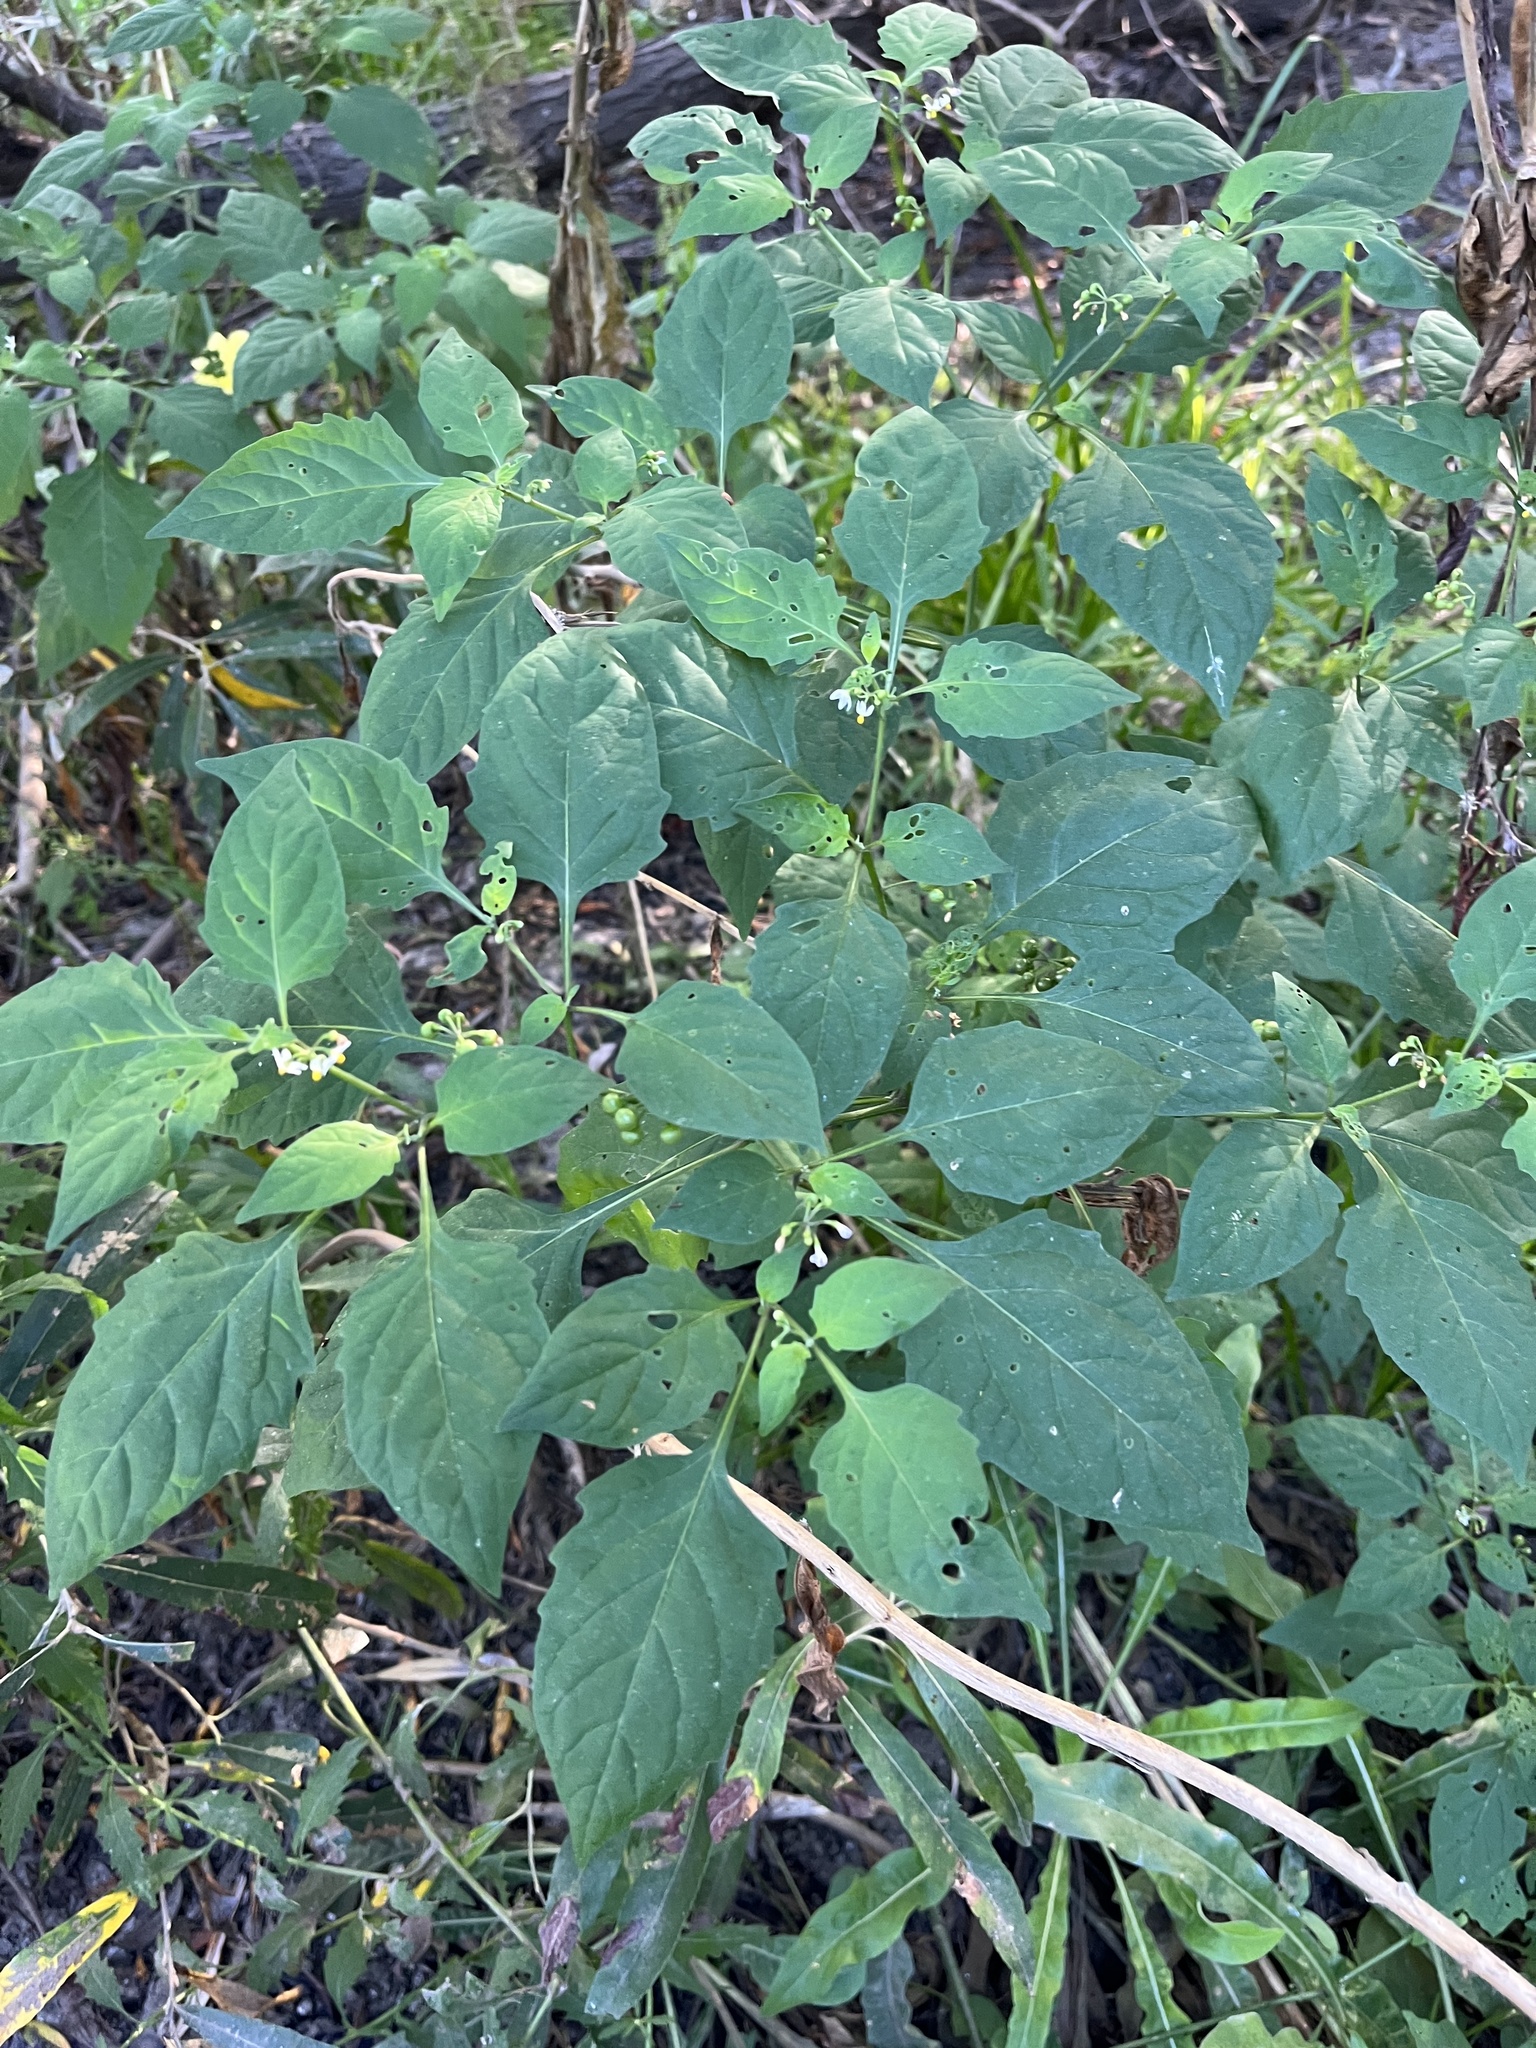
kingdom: Plantae
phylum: Tracheophyta
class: Magnoliopsida
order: Solanales
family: Solanaceae
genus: Solanum
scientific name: Solanum americanum
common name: American black nightshade
